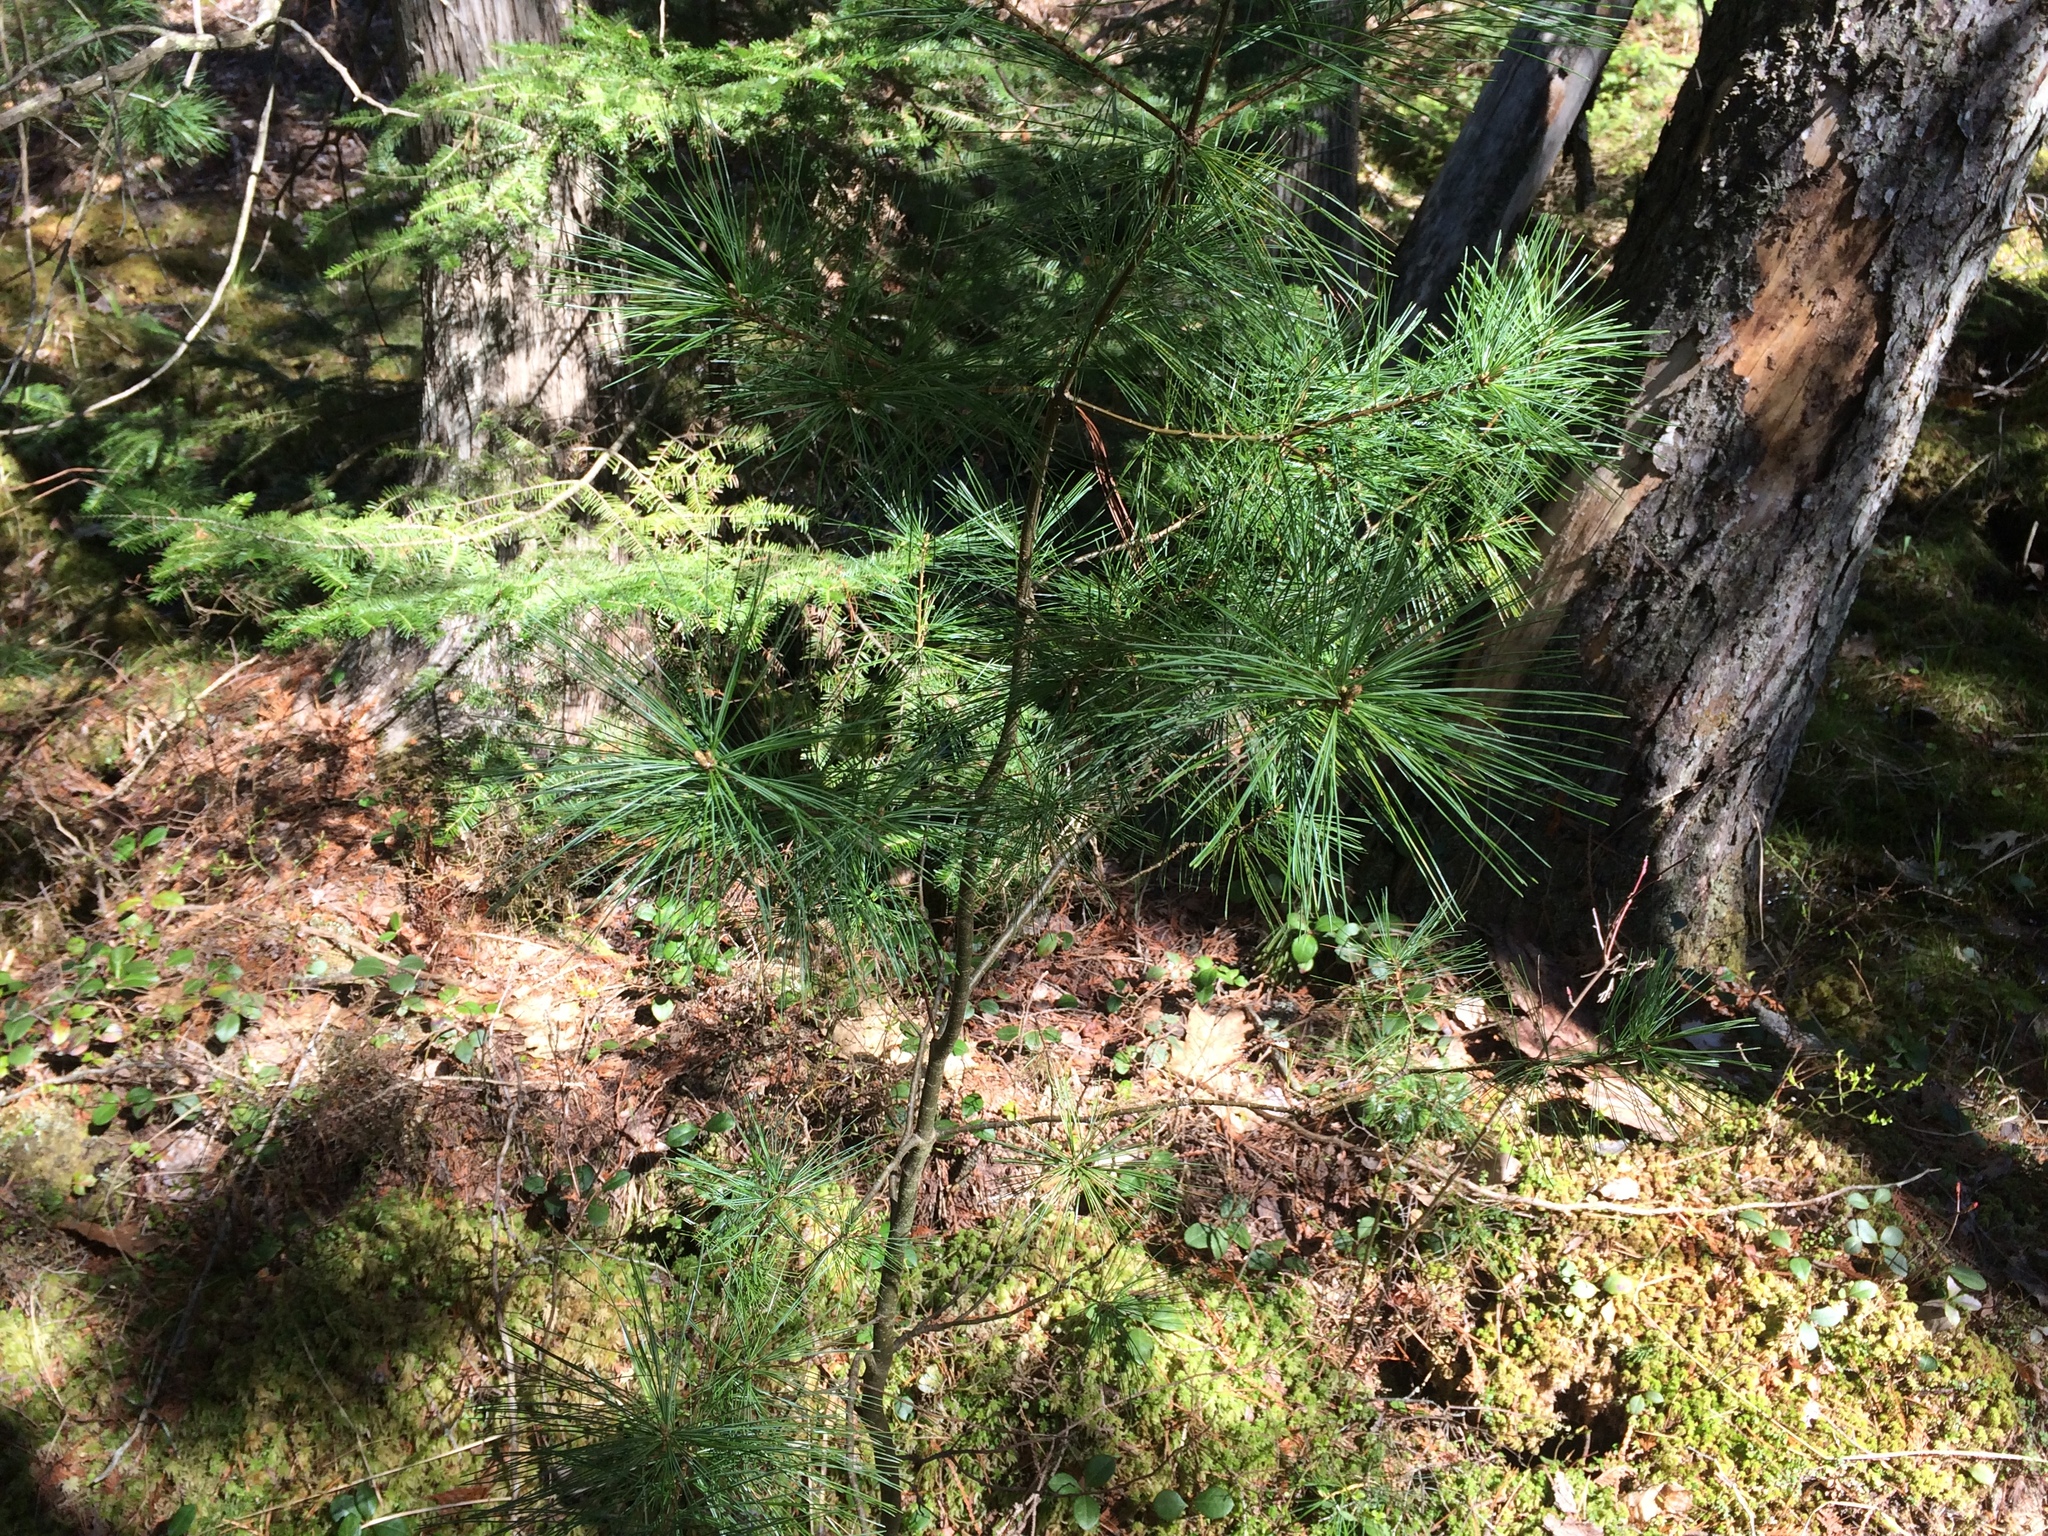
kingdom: Plantae
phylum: Tracheophyta
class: Pinopsida
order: Pinales
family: Pinaceae
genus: Pinus
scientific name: Pinus strobus
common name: Weymouth pine
